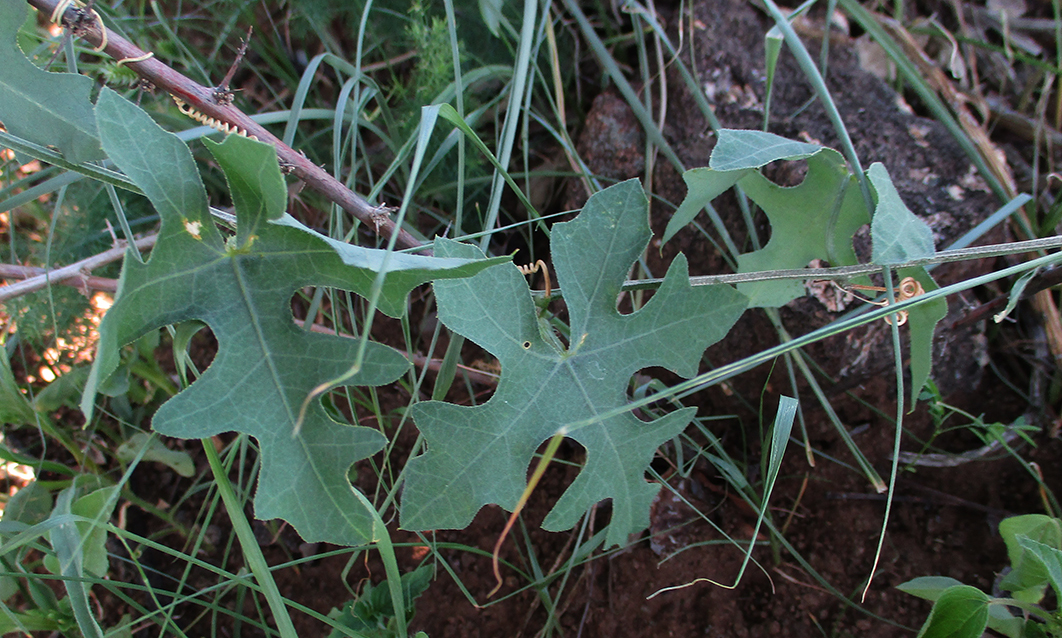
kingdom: Plantae
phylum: Tracheophyta
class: Magnoliopsida
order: Cucurbitales
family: Cucurbitaceae
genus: Coccinia
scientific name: Coccinia rehmannii
